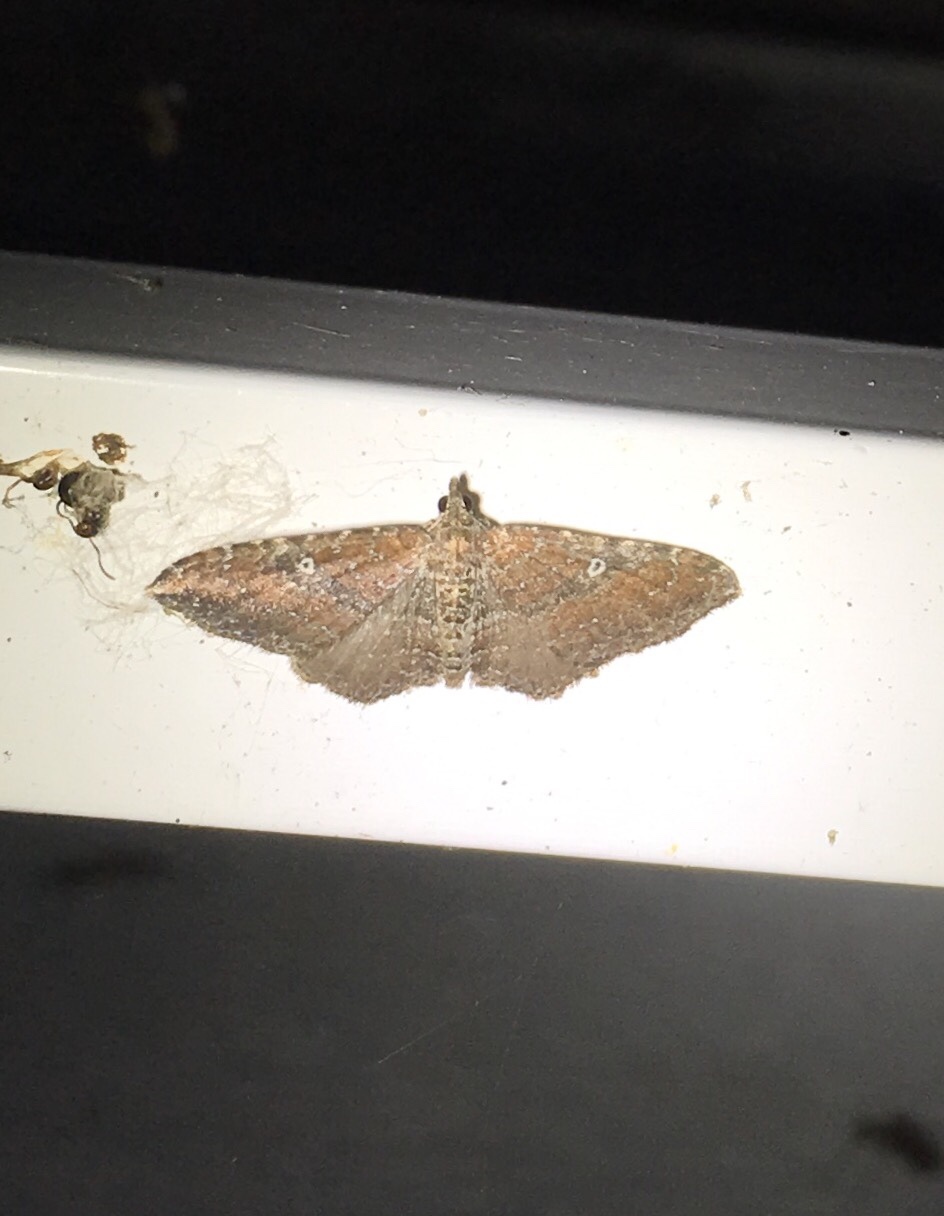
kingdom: Animalia
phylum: Arthropoda
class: Insecta
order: Lepidoptera
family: Geometridae
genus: Orthonama
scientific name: Orthonama obstipata
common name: The gem
